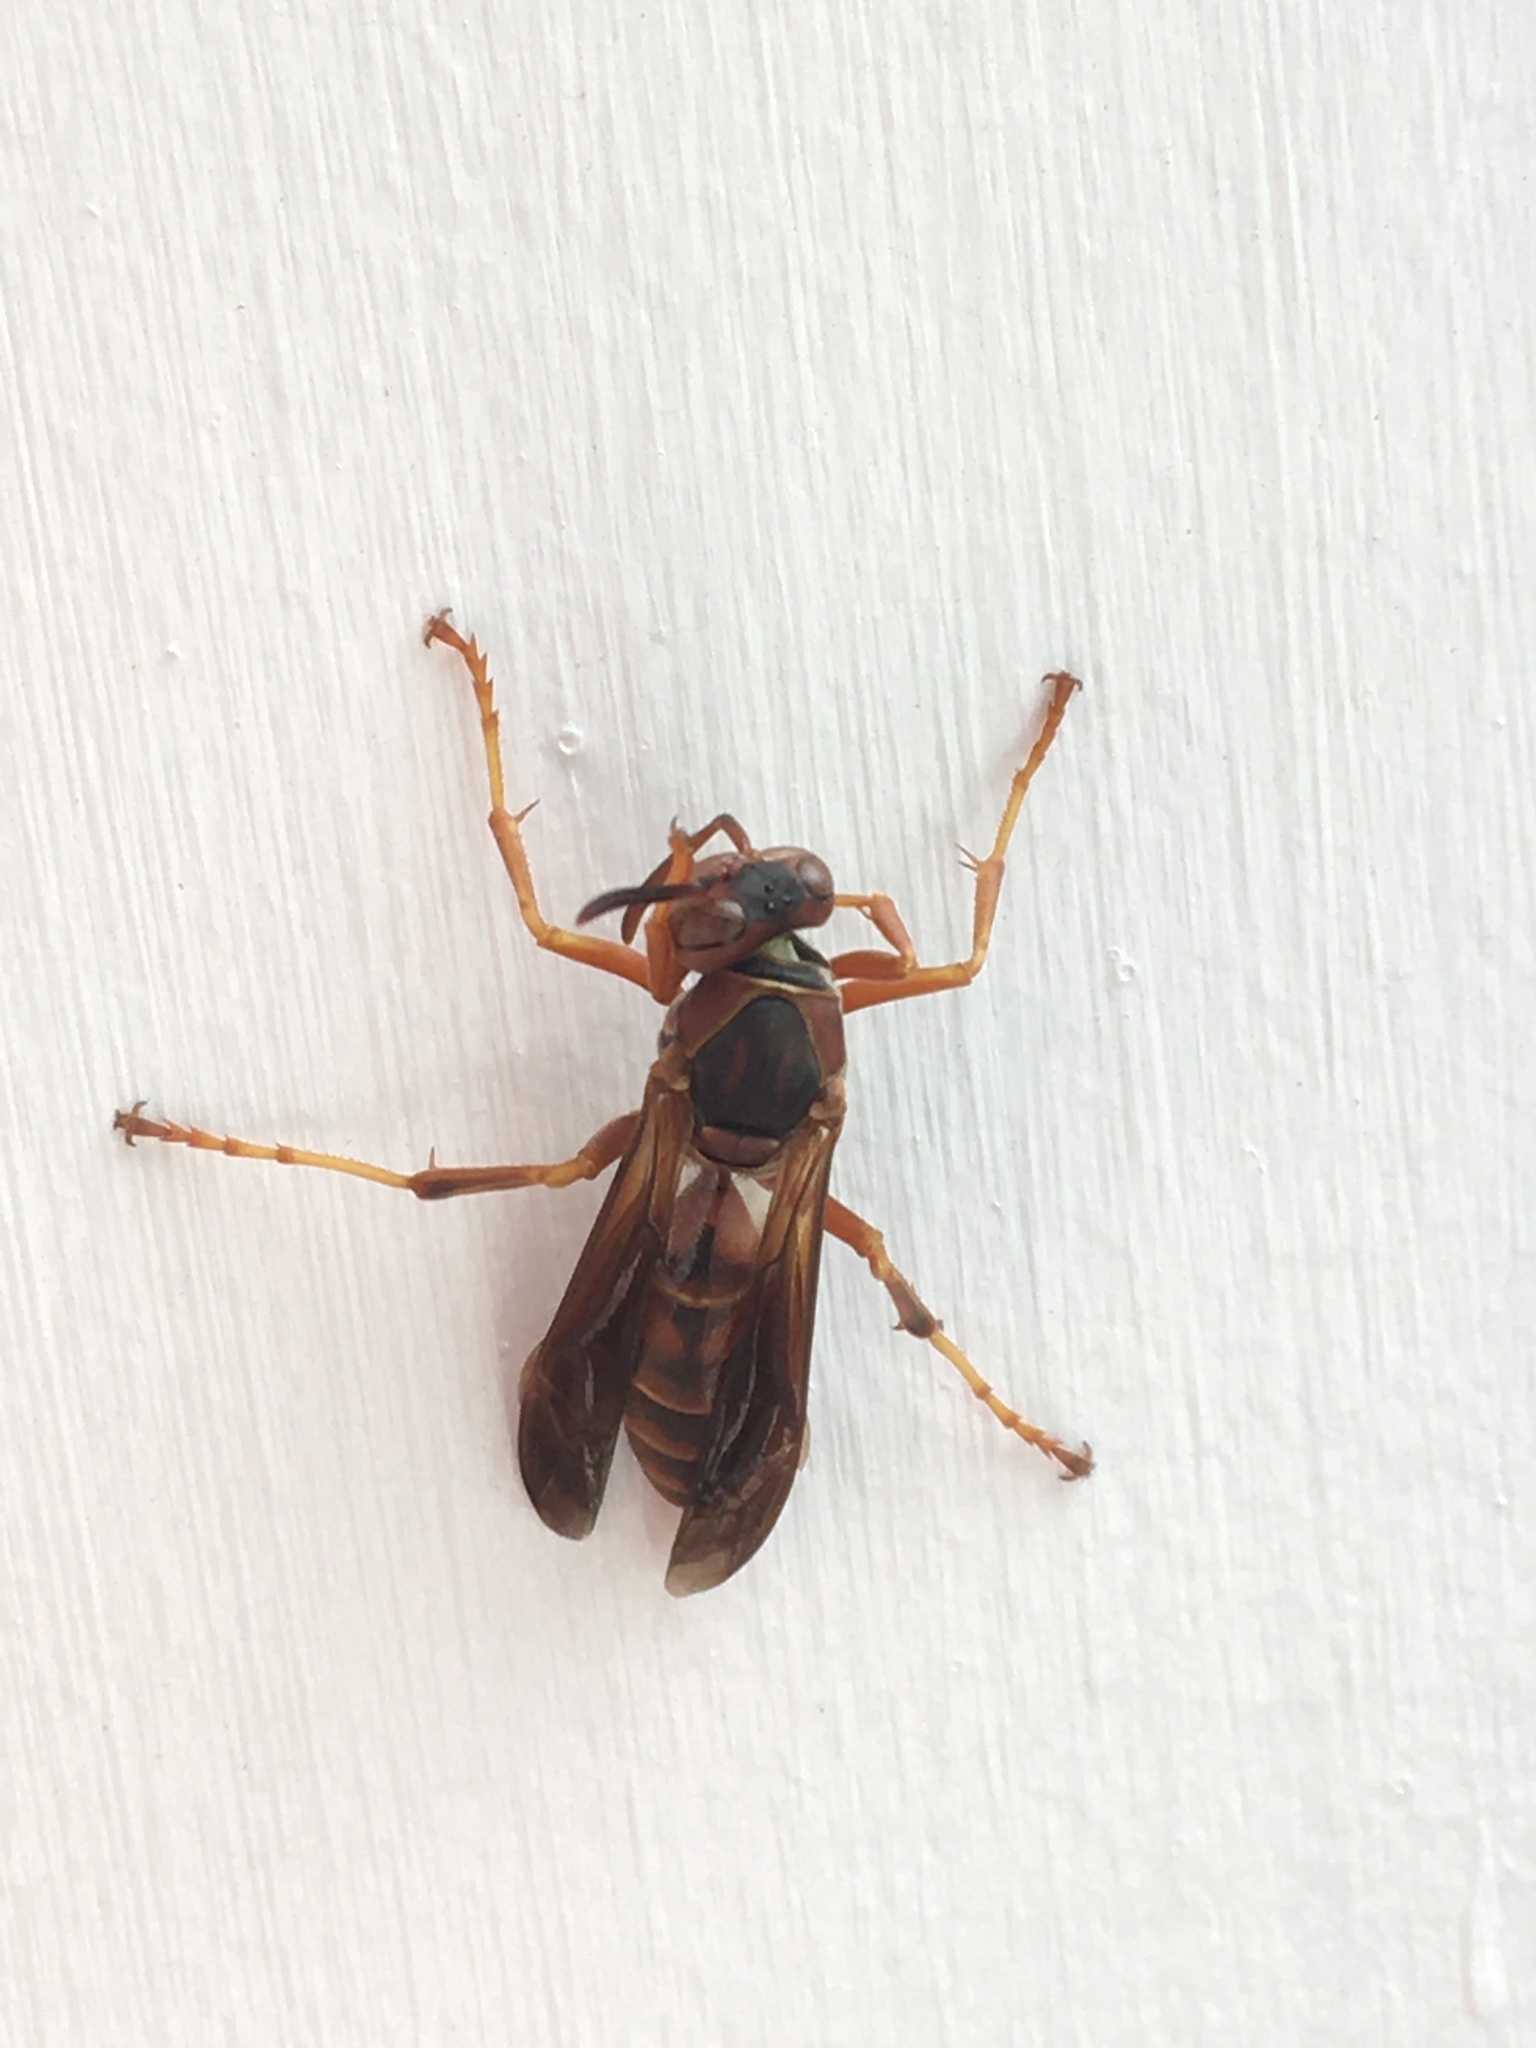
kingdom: Animalia
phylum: Arthropoda
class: Insecta
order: Hymenoptera
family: Eumenidae
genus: Polistes
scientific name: Polistes fuscatus
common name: Dark paper wasp
